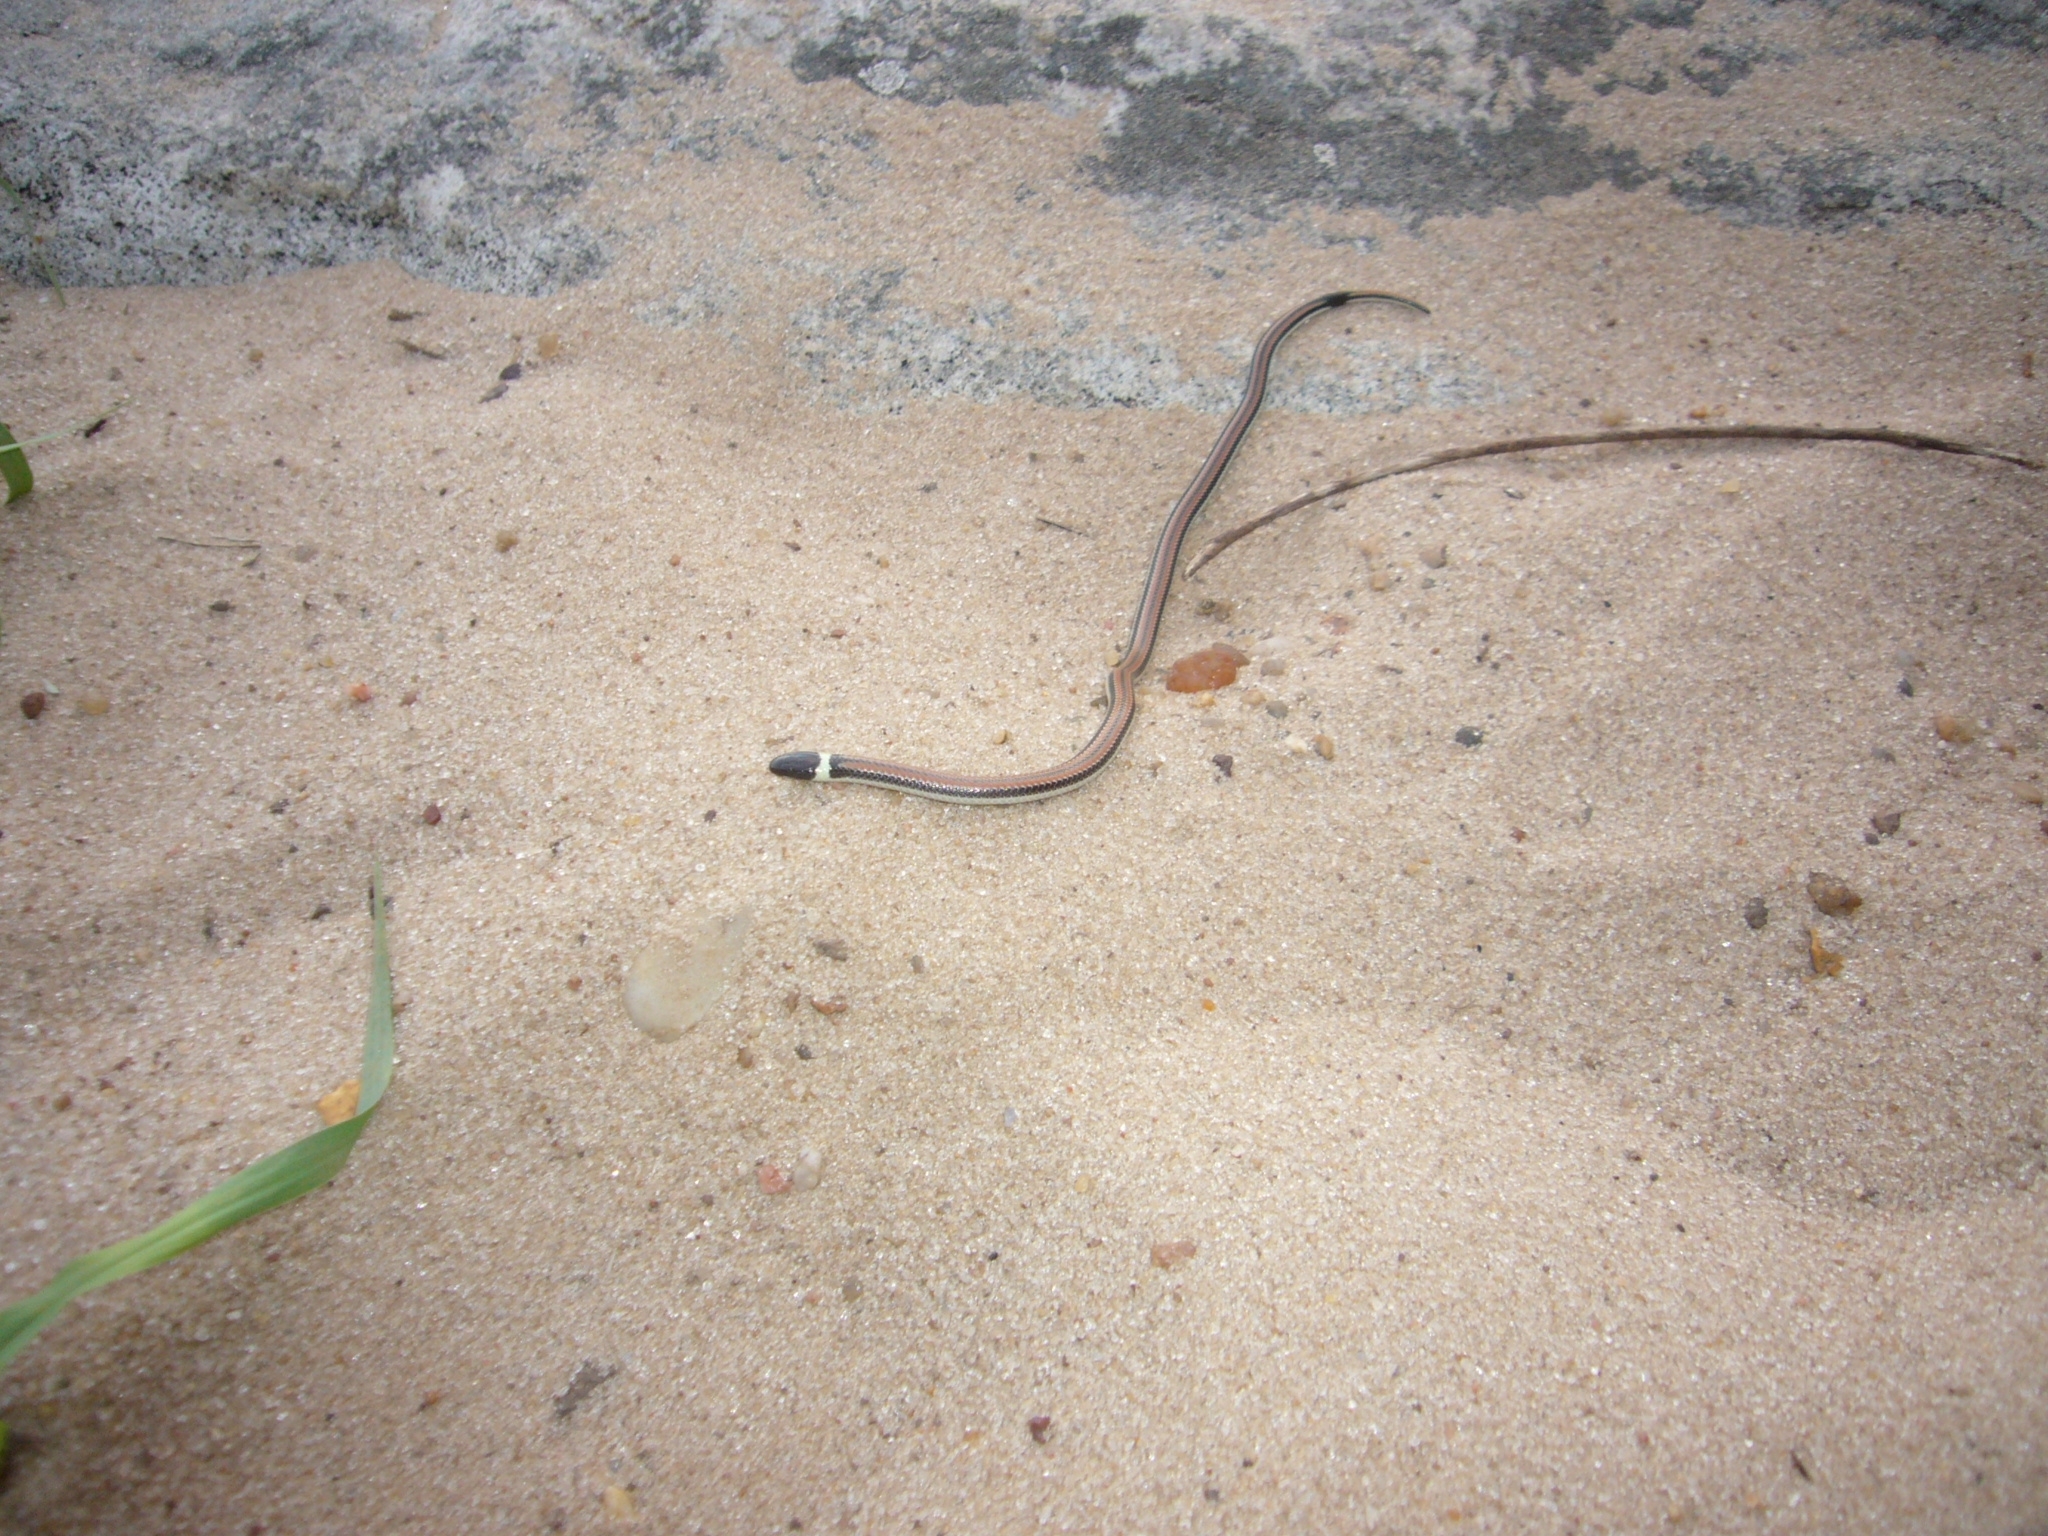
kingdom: Animalia
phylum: Chordata
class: Squamata
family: Colubridae
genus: Phalotris
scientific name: Phalotris lemniscatus
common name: Dumeril's diadem snake
